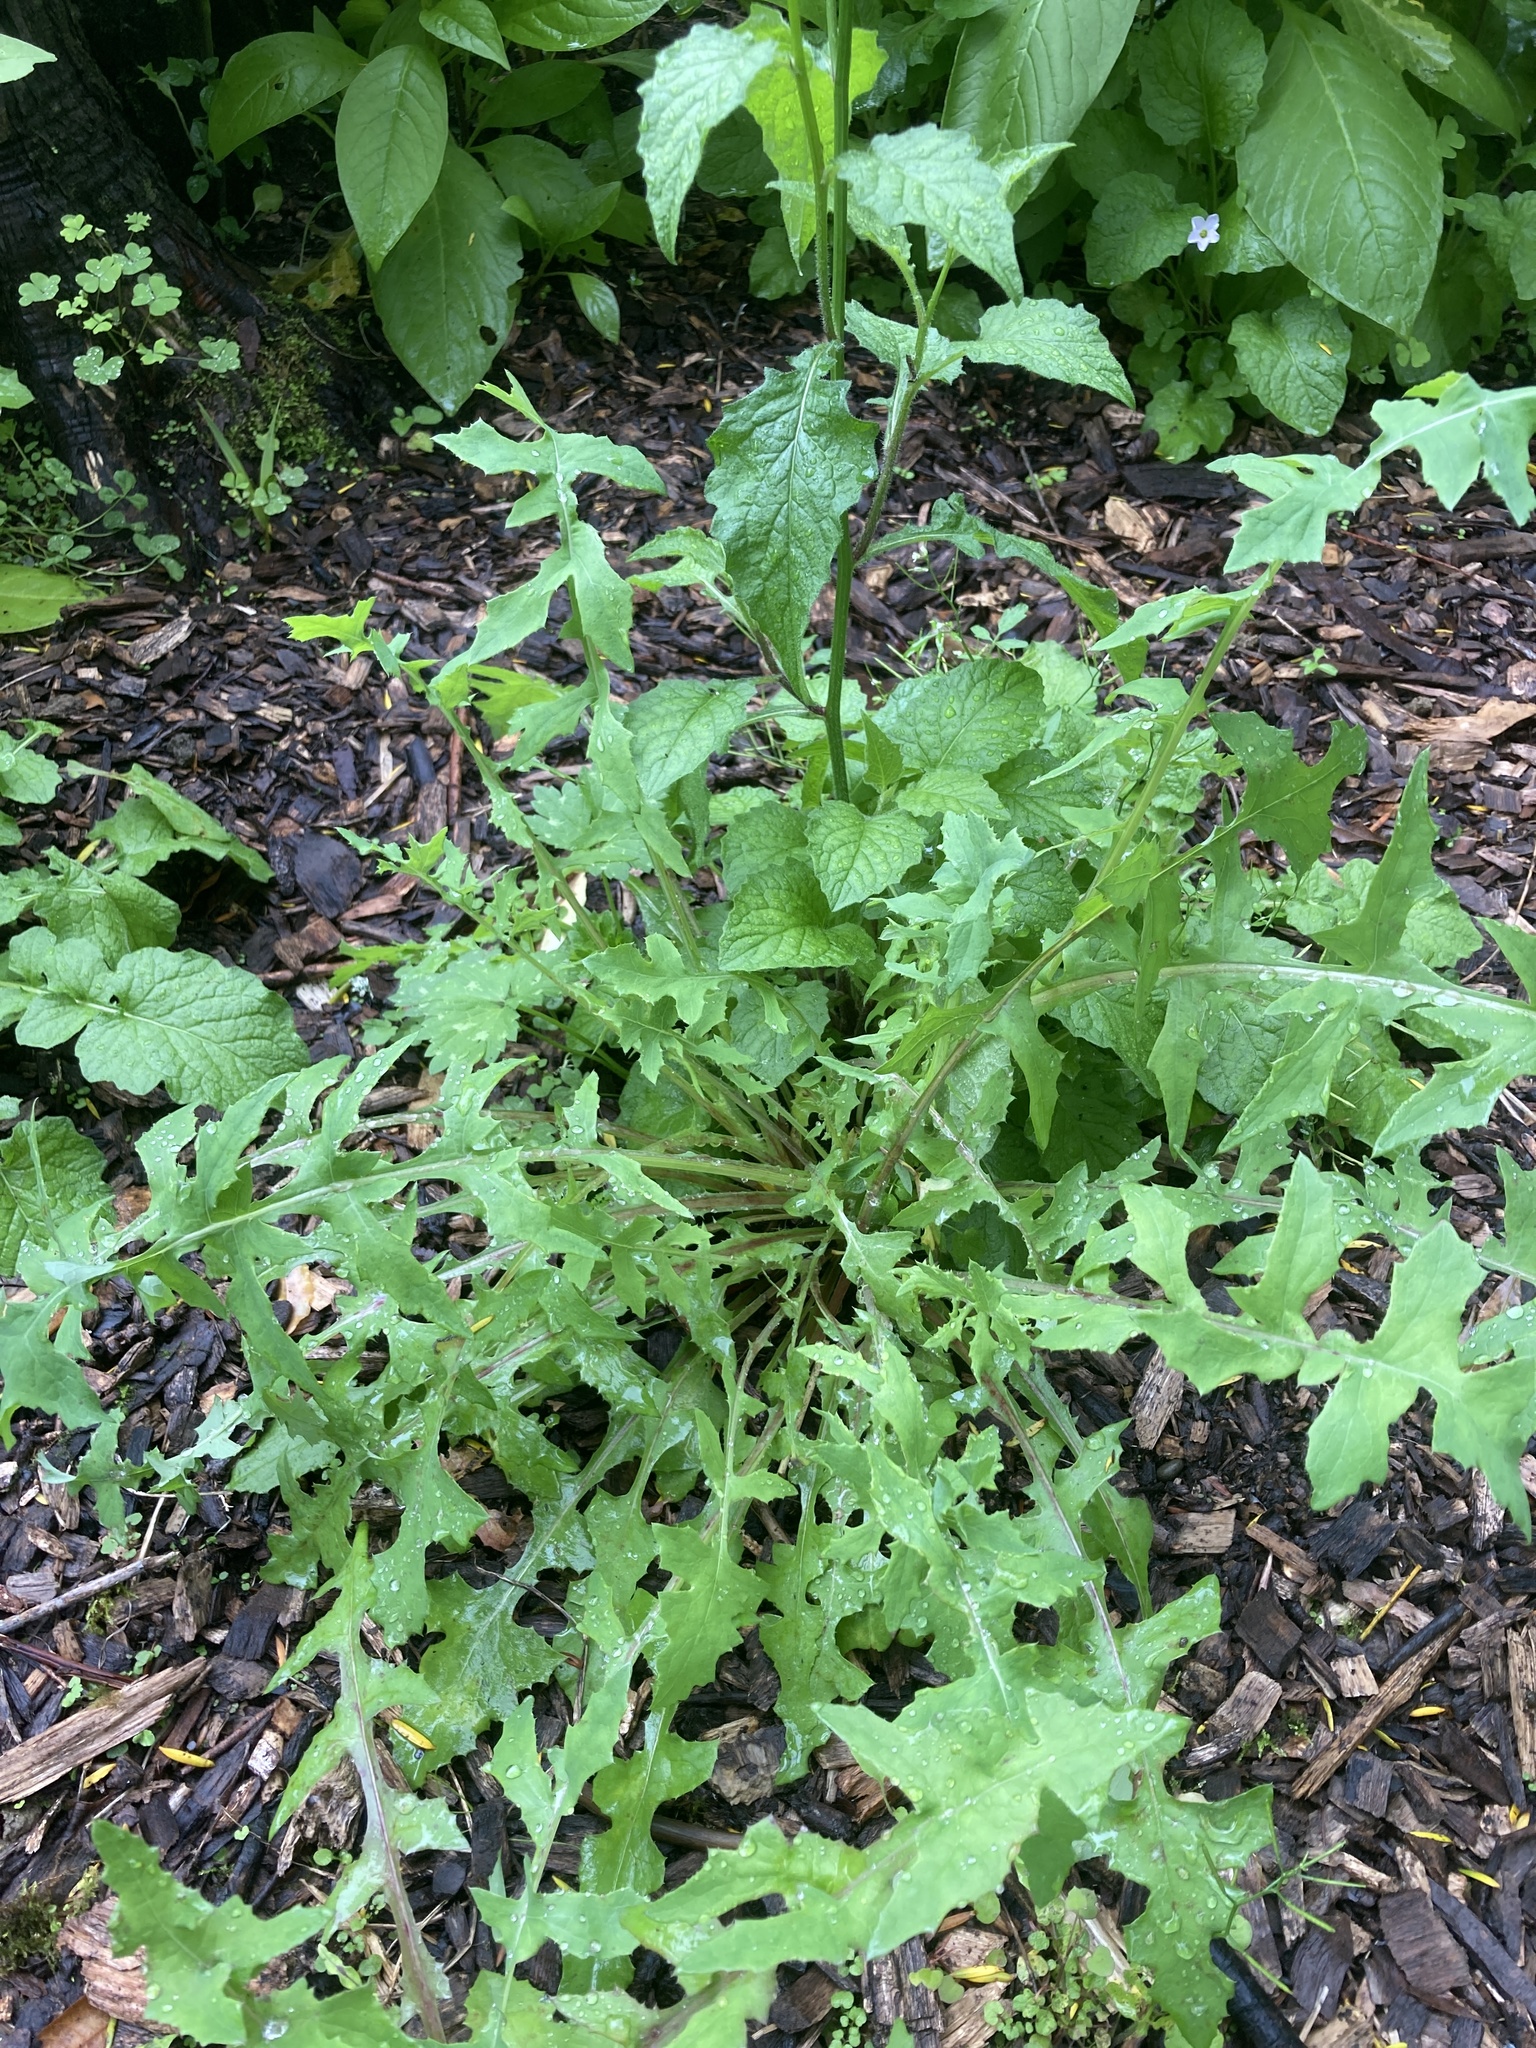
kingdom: Plantae
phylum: Tracheophyta
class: Magnoliopsida
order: Asterales
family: Asteraceae
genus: Sonchus
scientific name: Sonchus oleraceus
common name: Common sowthistle
